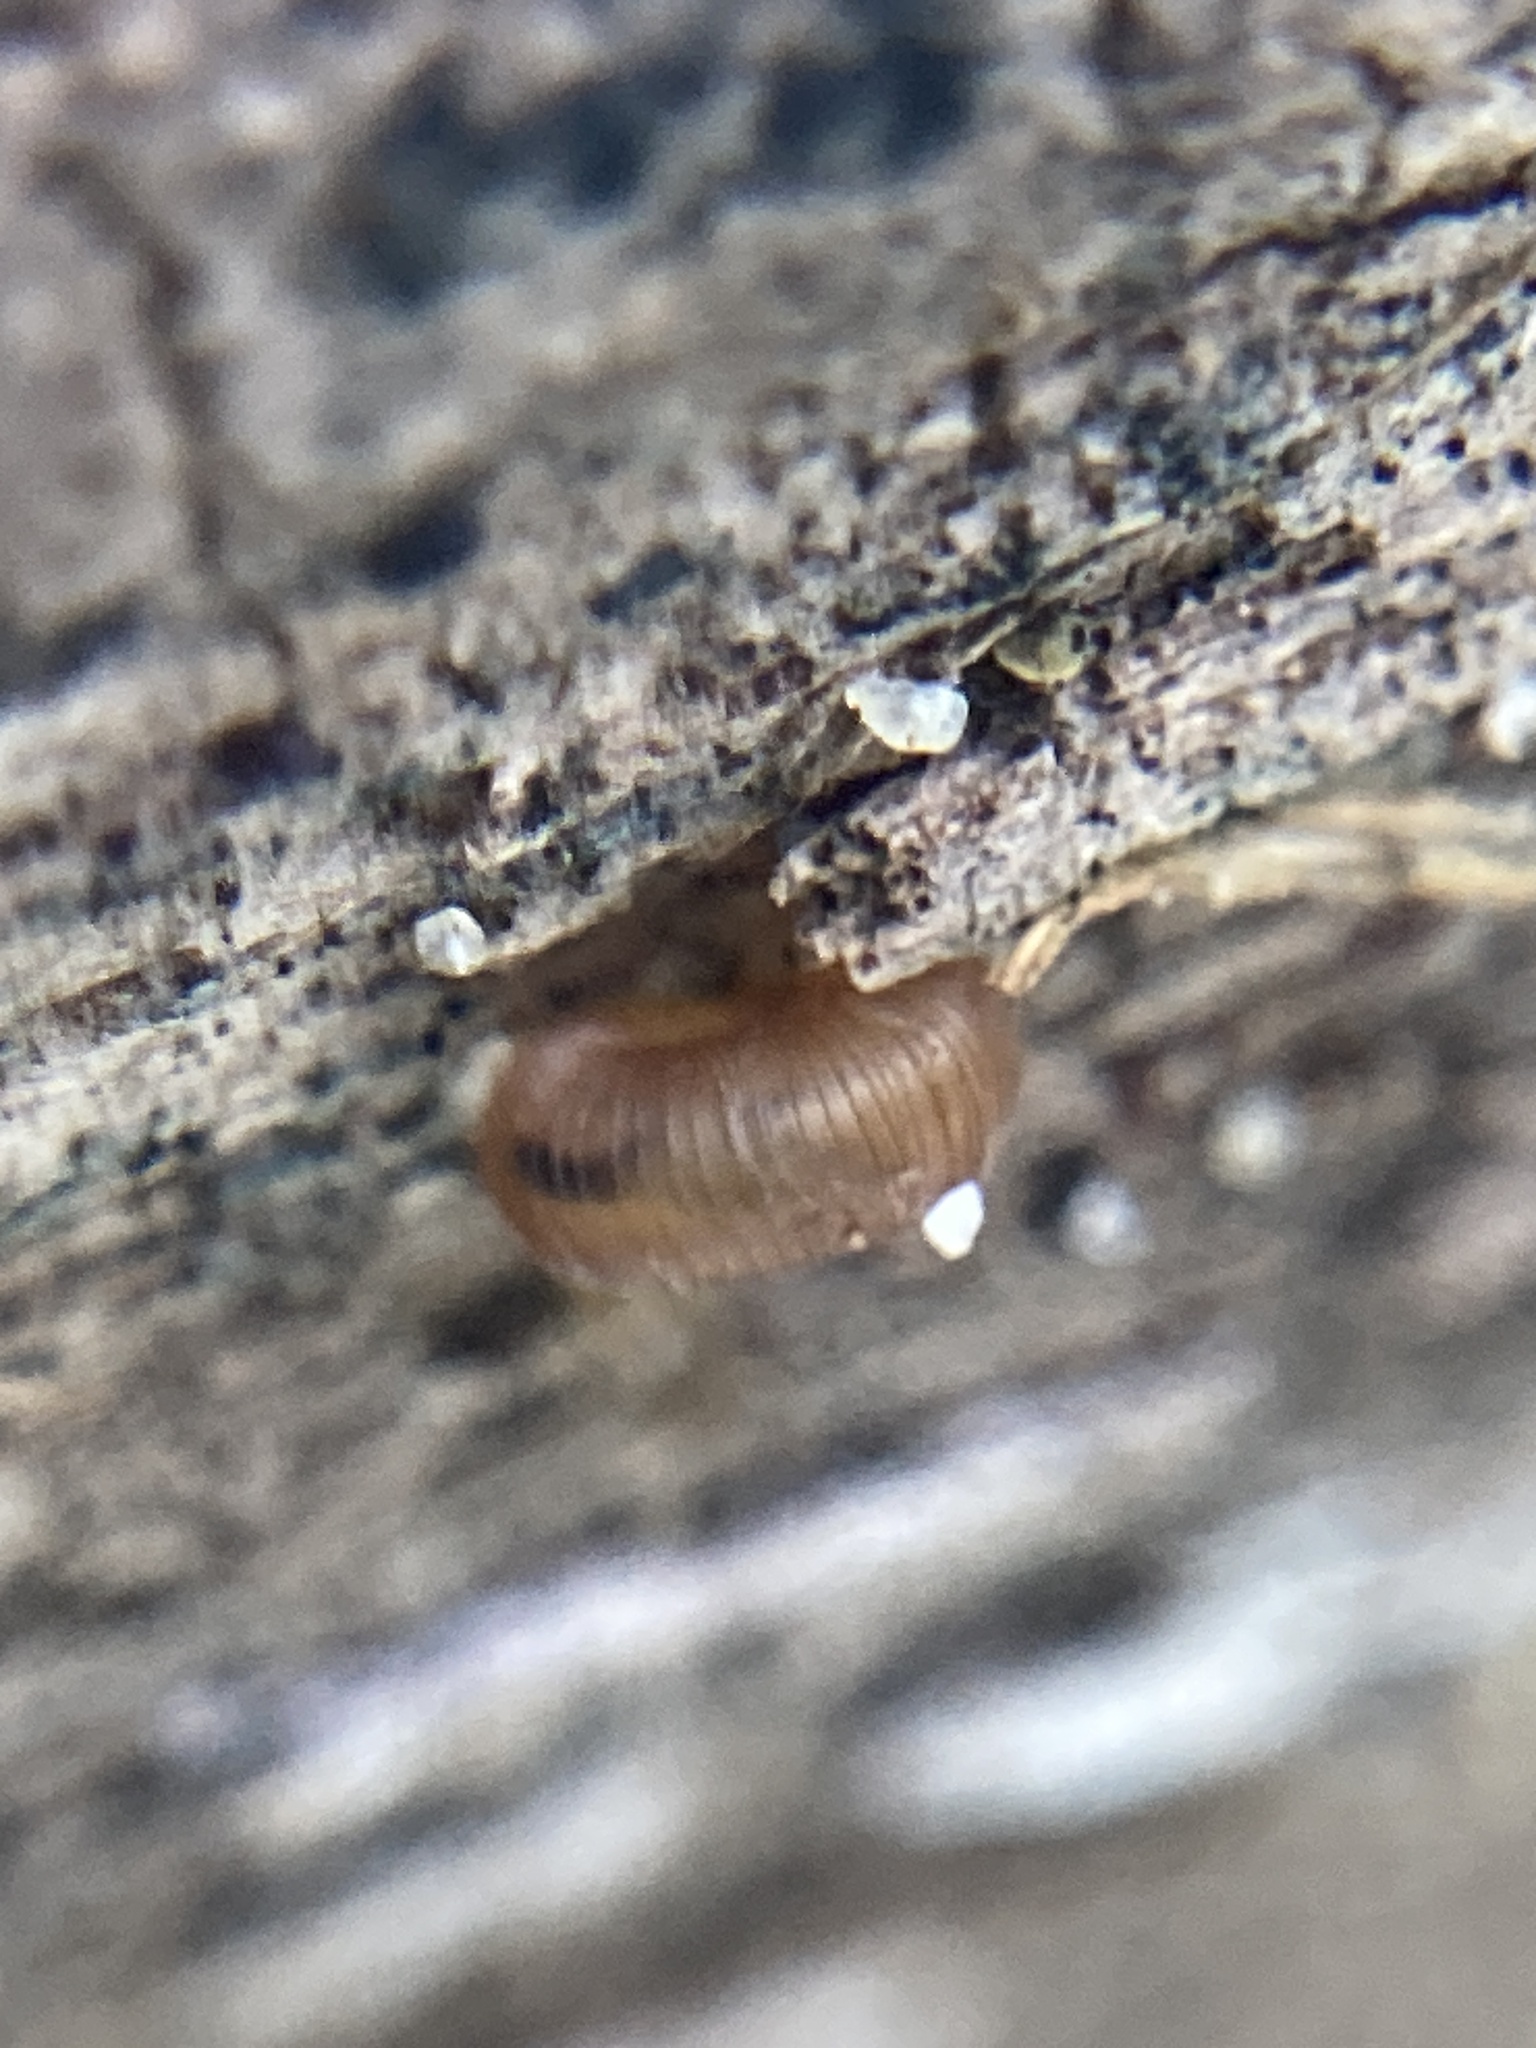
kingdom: Animalia
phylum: Mollusca
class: Gastropoda
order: Stylommatophora
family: Charopidae
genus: Diphyoropa
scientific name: Diphyoropa saturni
